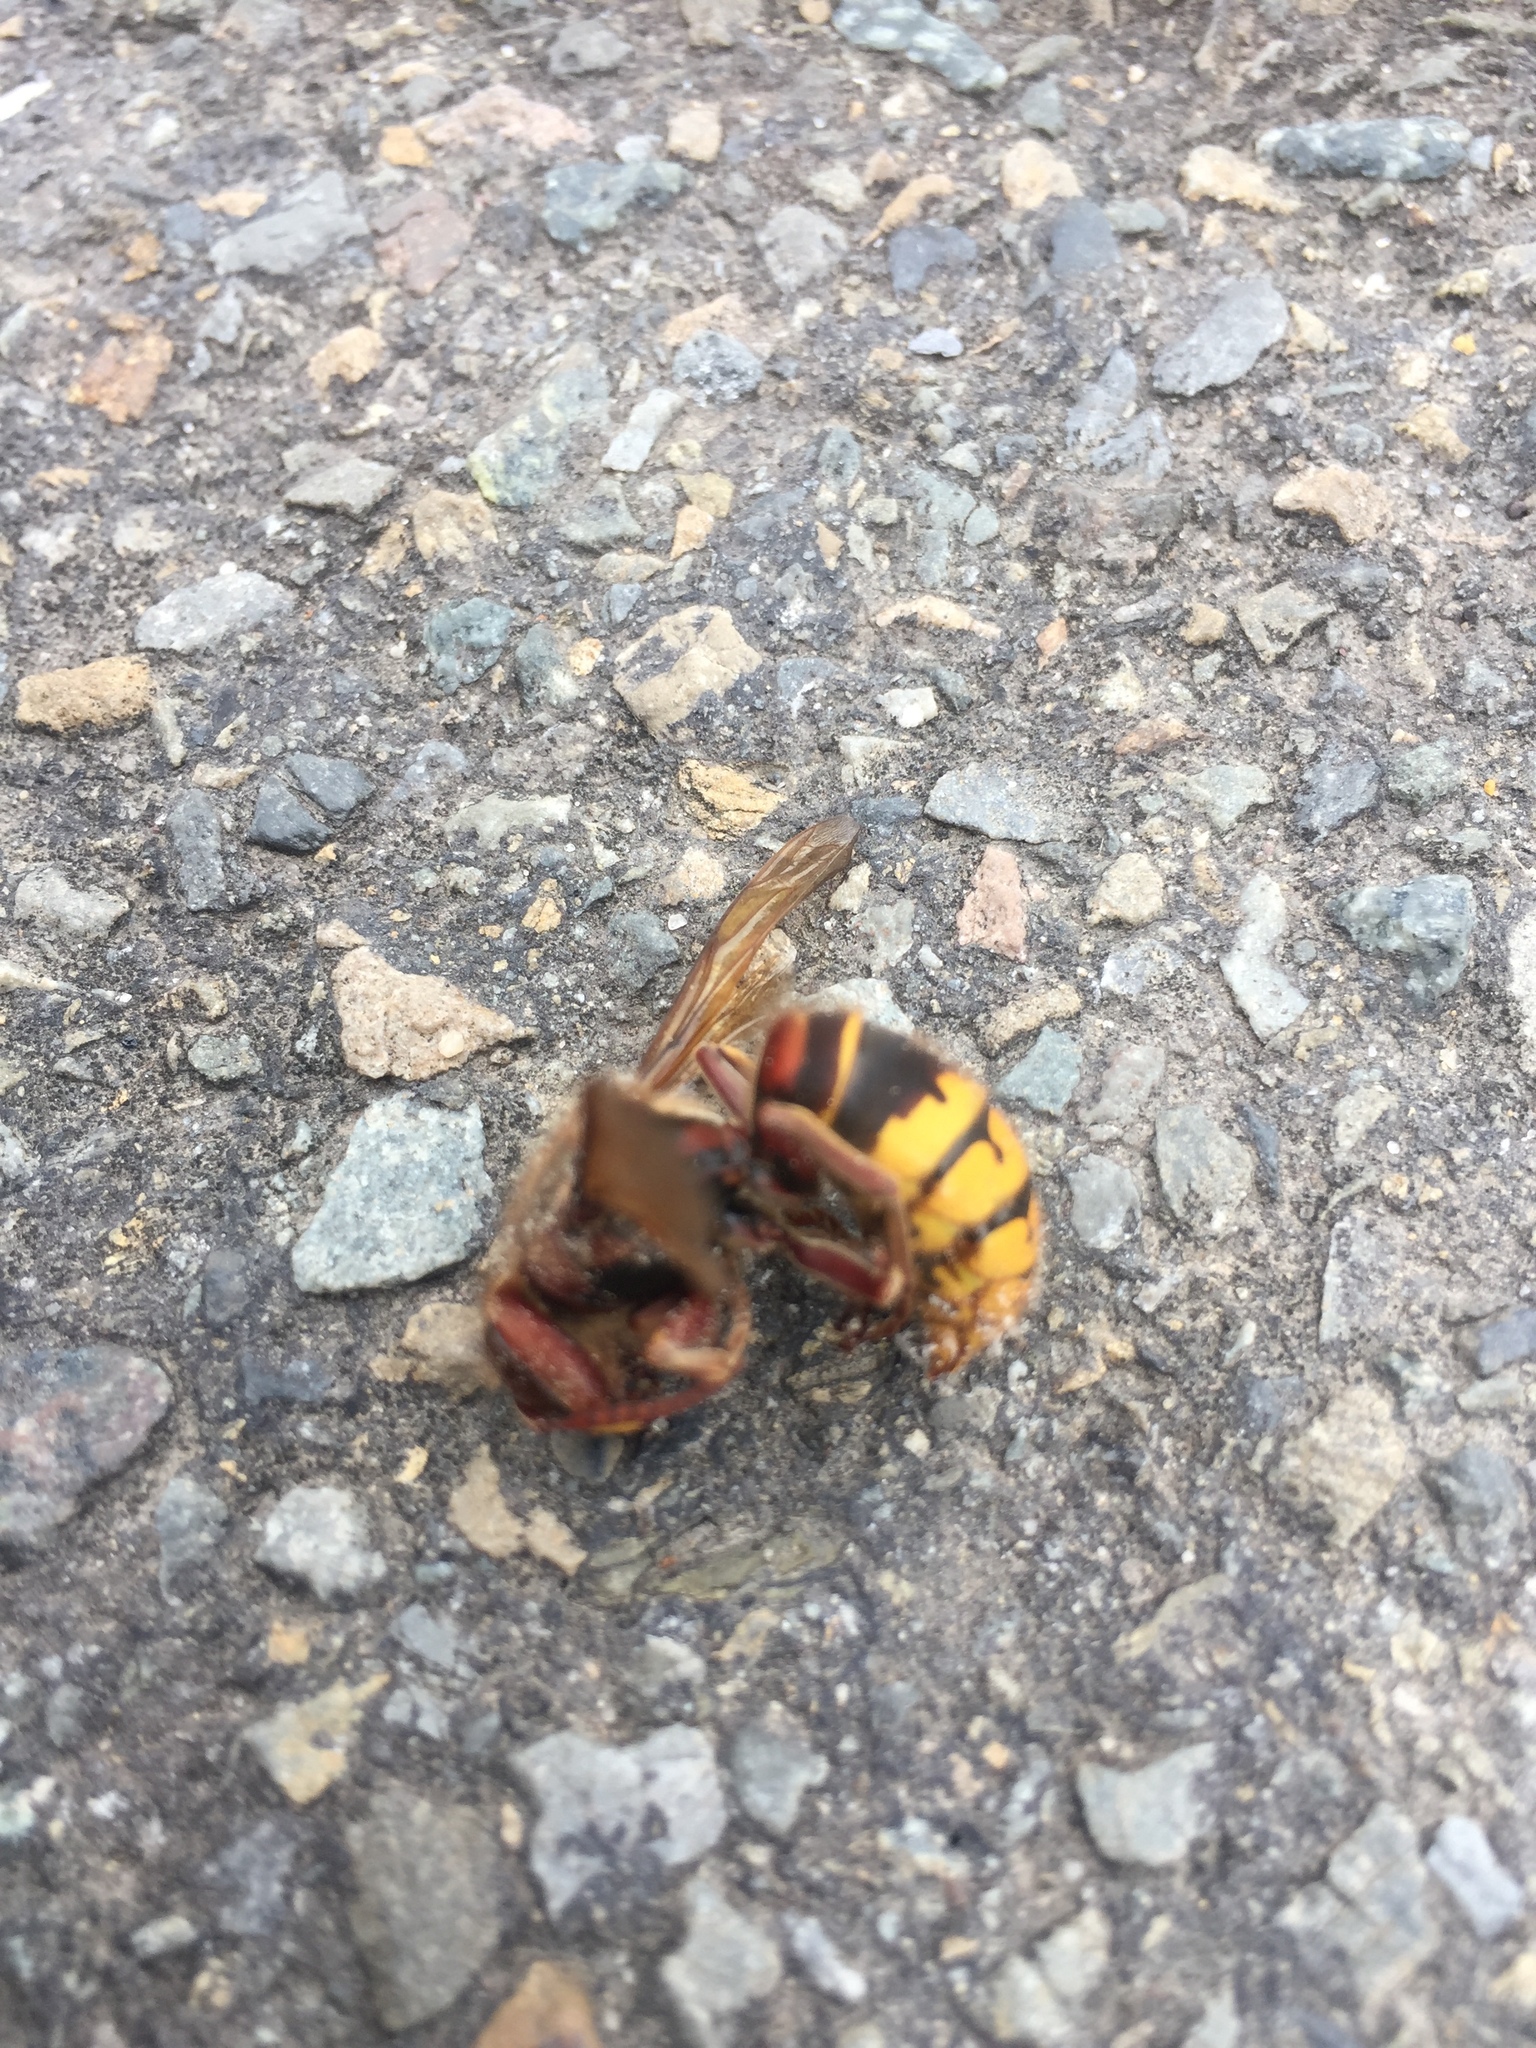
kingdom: Animalia
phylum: Arthropoda
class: Insecta
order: Hymenoptera
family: Vespidae
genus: Vespa
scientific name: Vespa crabro
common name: Hornet
